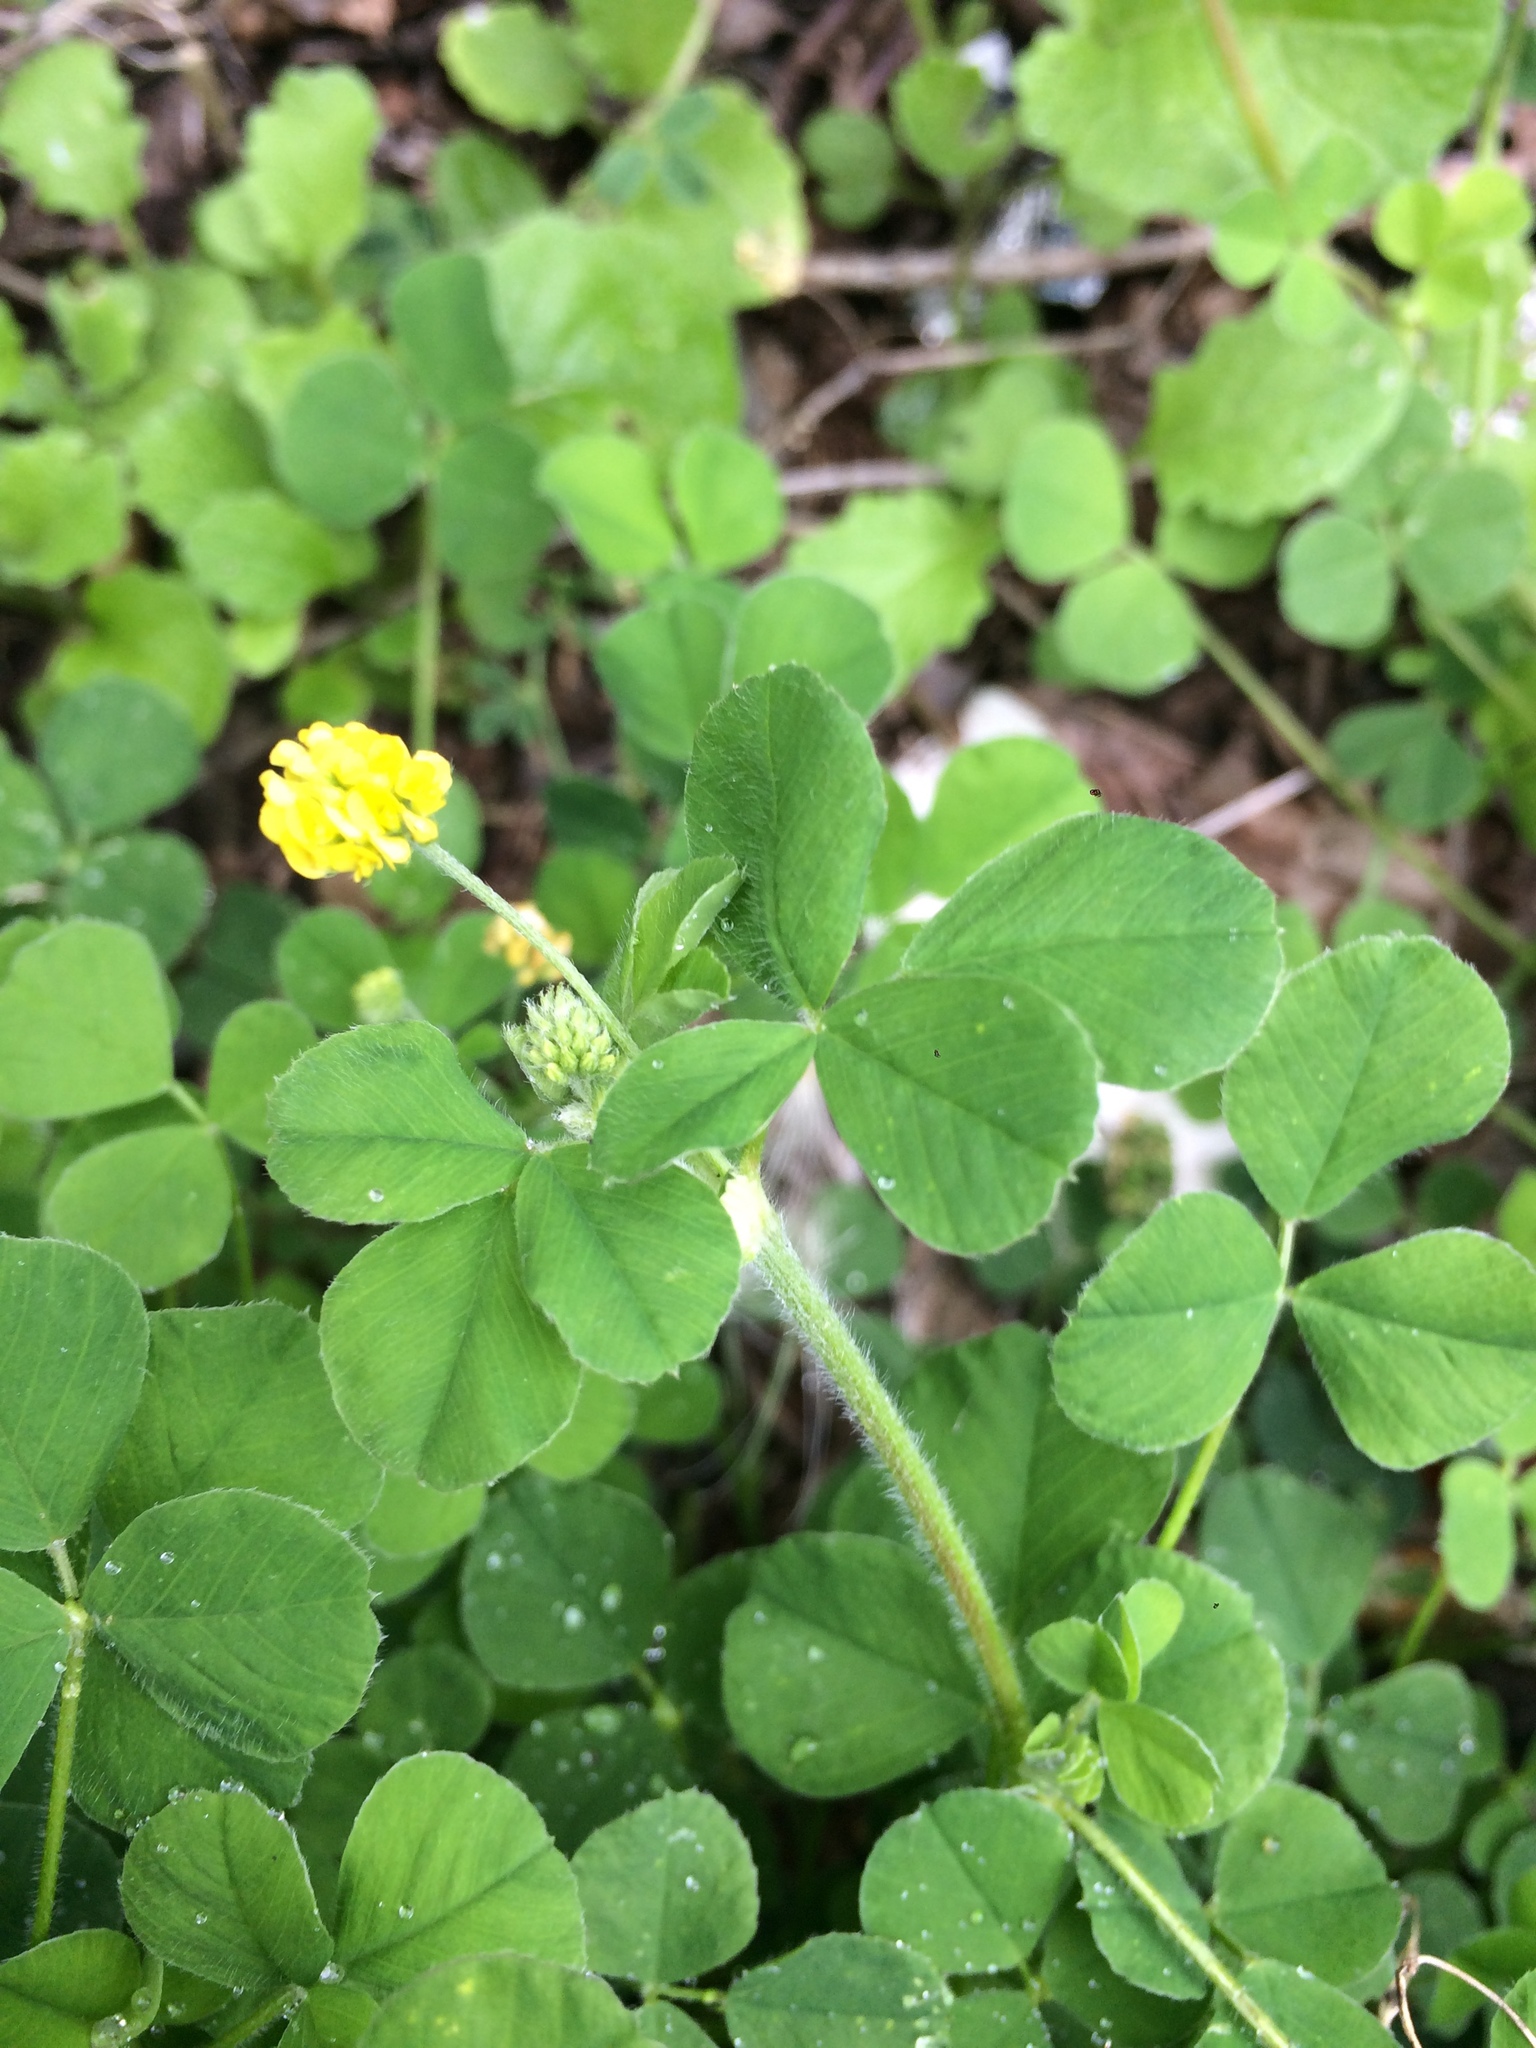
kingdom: Plantae
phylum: Tracheophyta
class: Magnoliopsida
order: Fabales
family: Fabaceae
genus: Medicago
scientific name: Medicago lupulina
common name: Black medick
